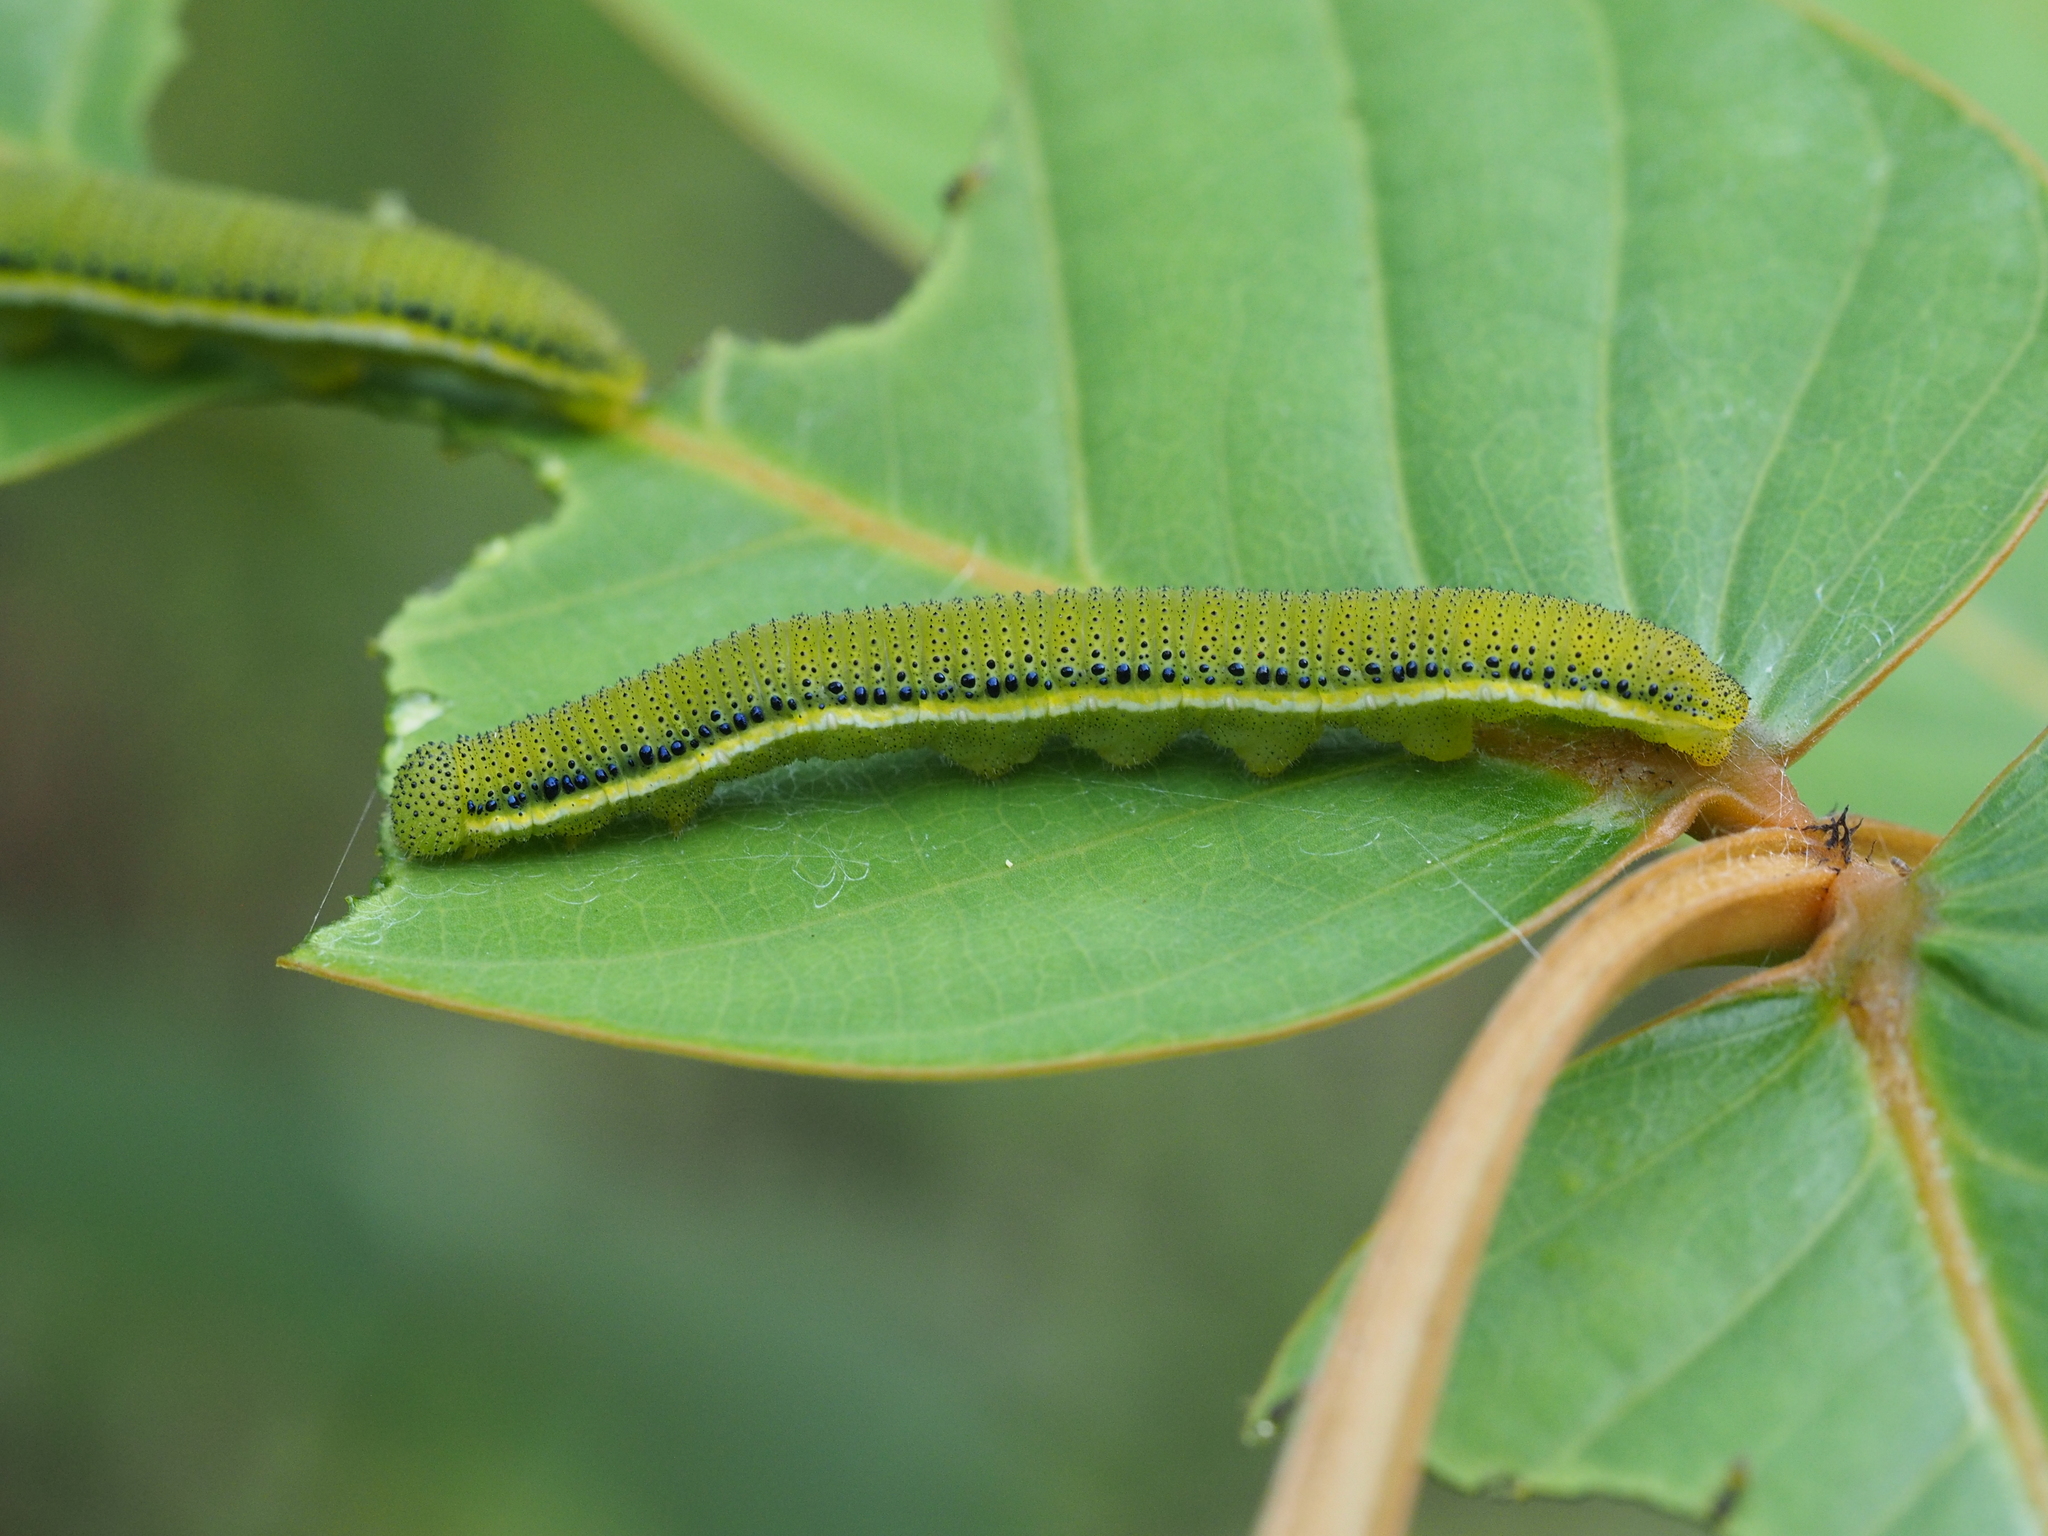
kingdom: Animalia
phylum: Arthropoda
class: Insecta
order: Lepidoptera
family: Pieridae
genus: Catopsilia
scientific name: Catopsilia pyranthe
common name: Mottled emigrant
